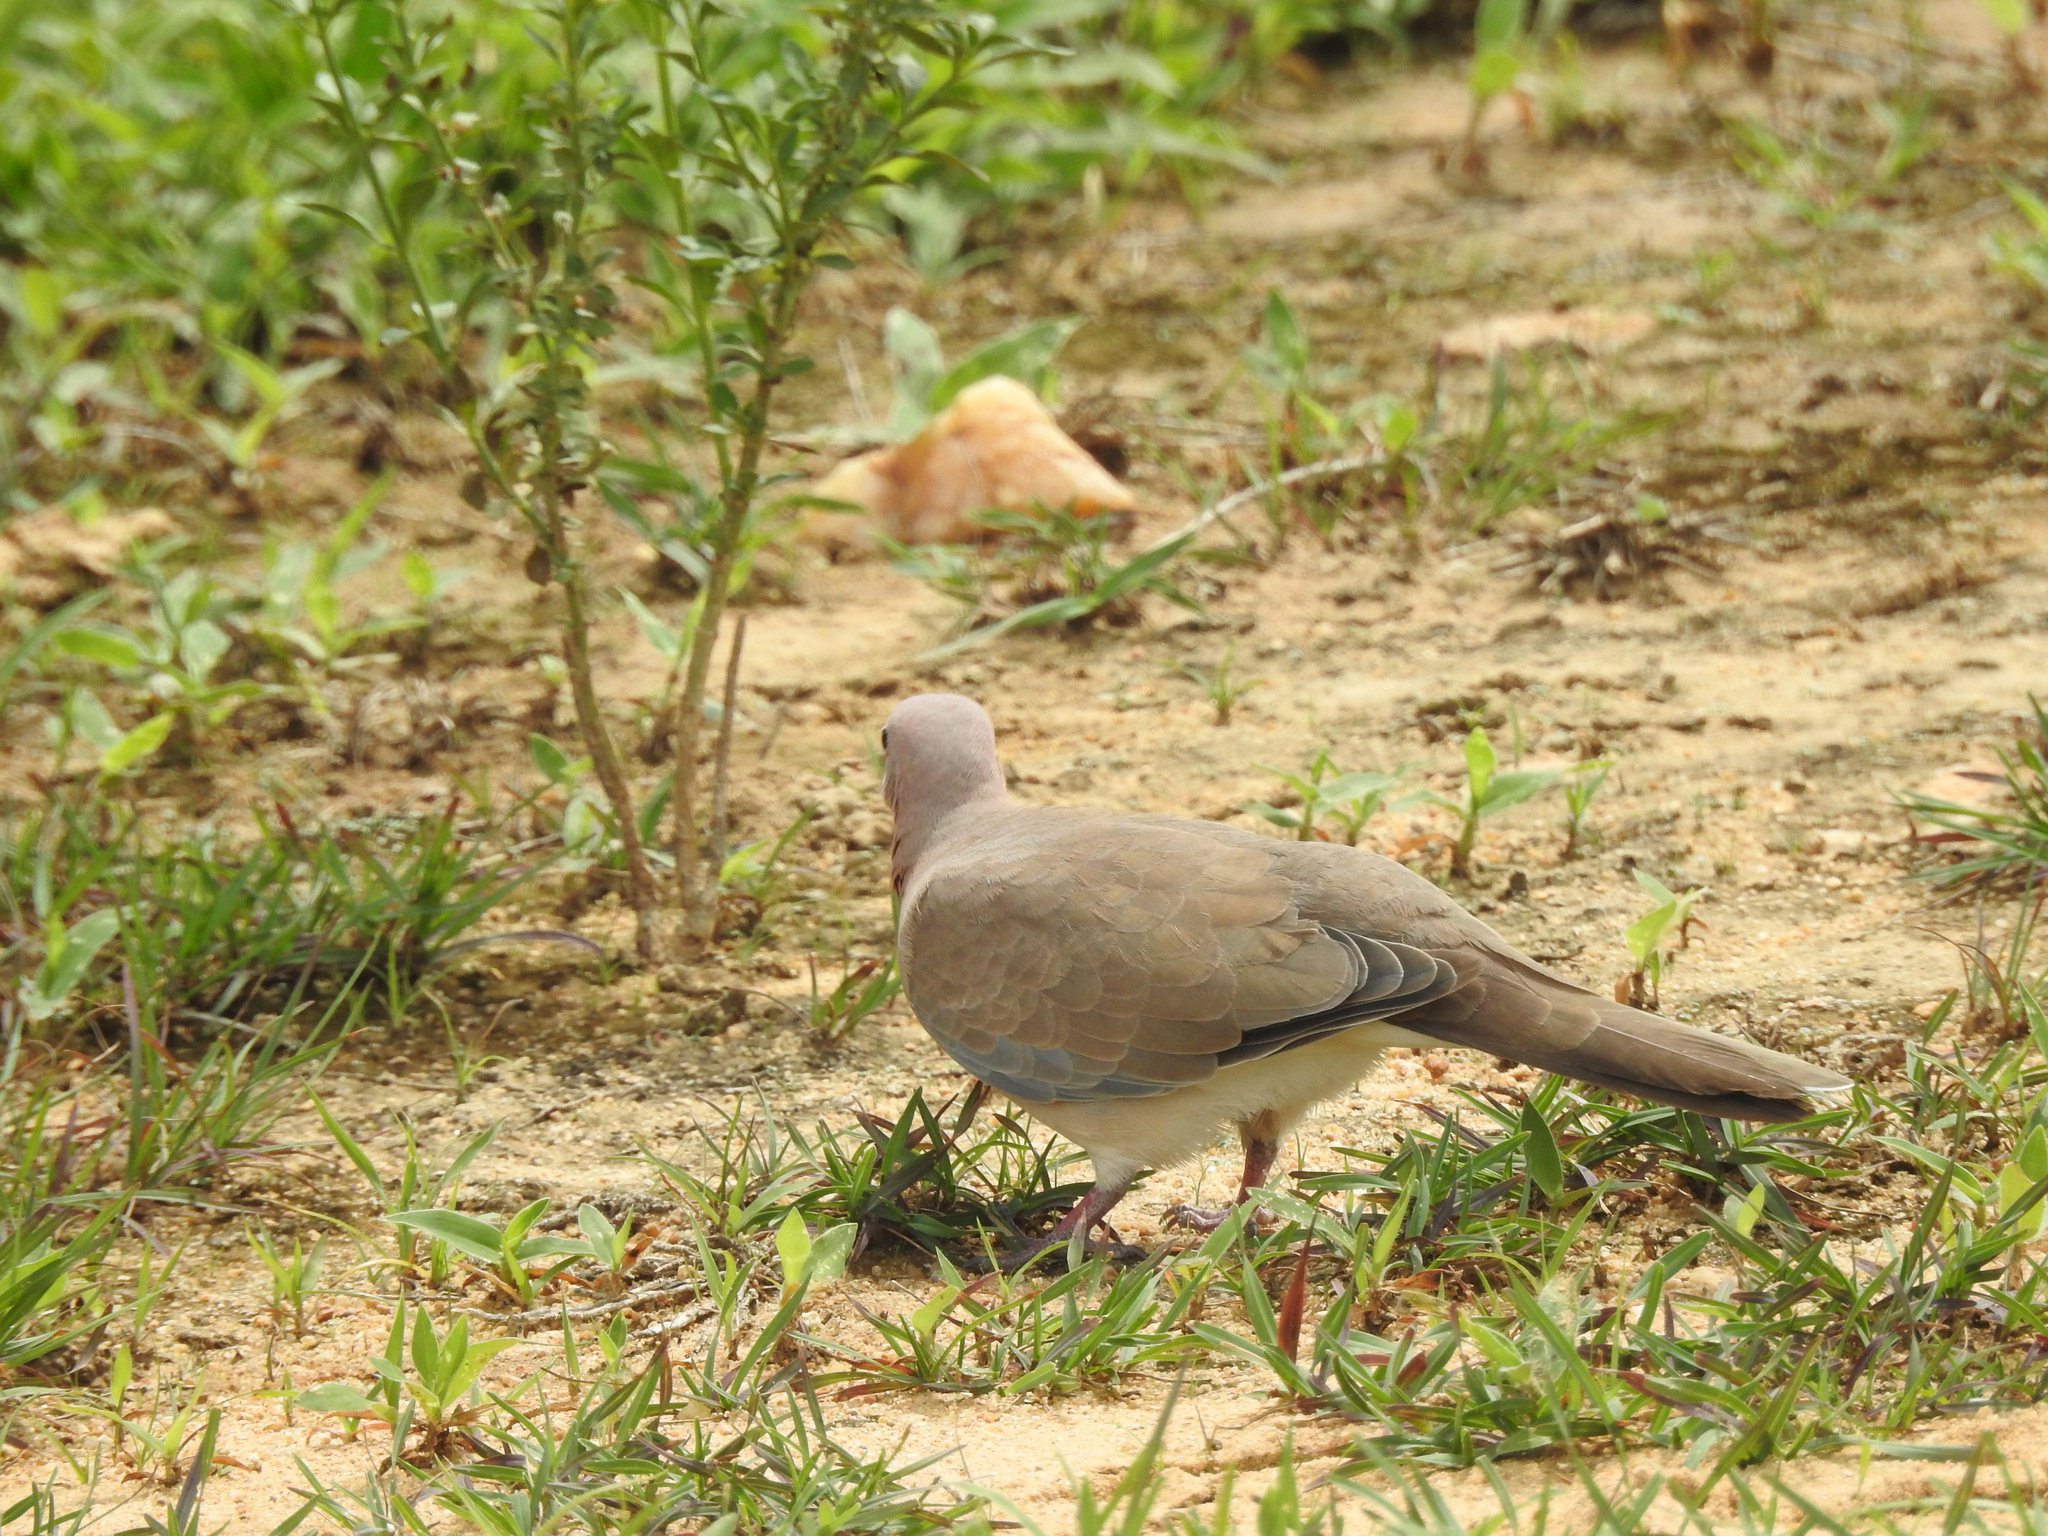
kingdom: Animalia
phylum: Chordata
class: Aves
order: Columbiformes
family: Columbidae
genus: Spilopelia
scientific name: Spilopelia senegalensis
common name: Laughing dove
